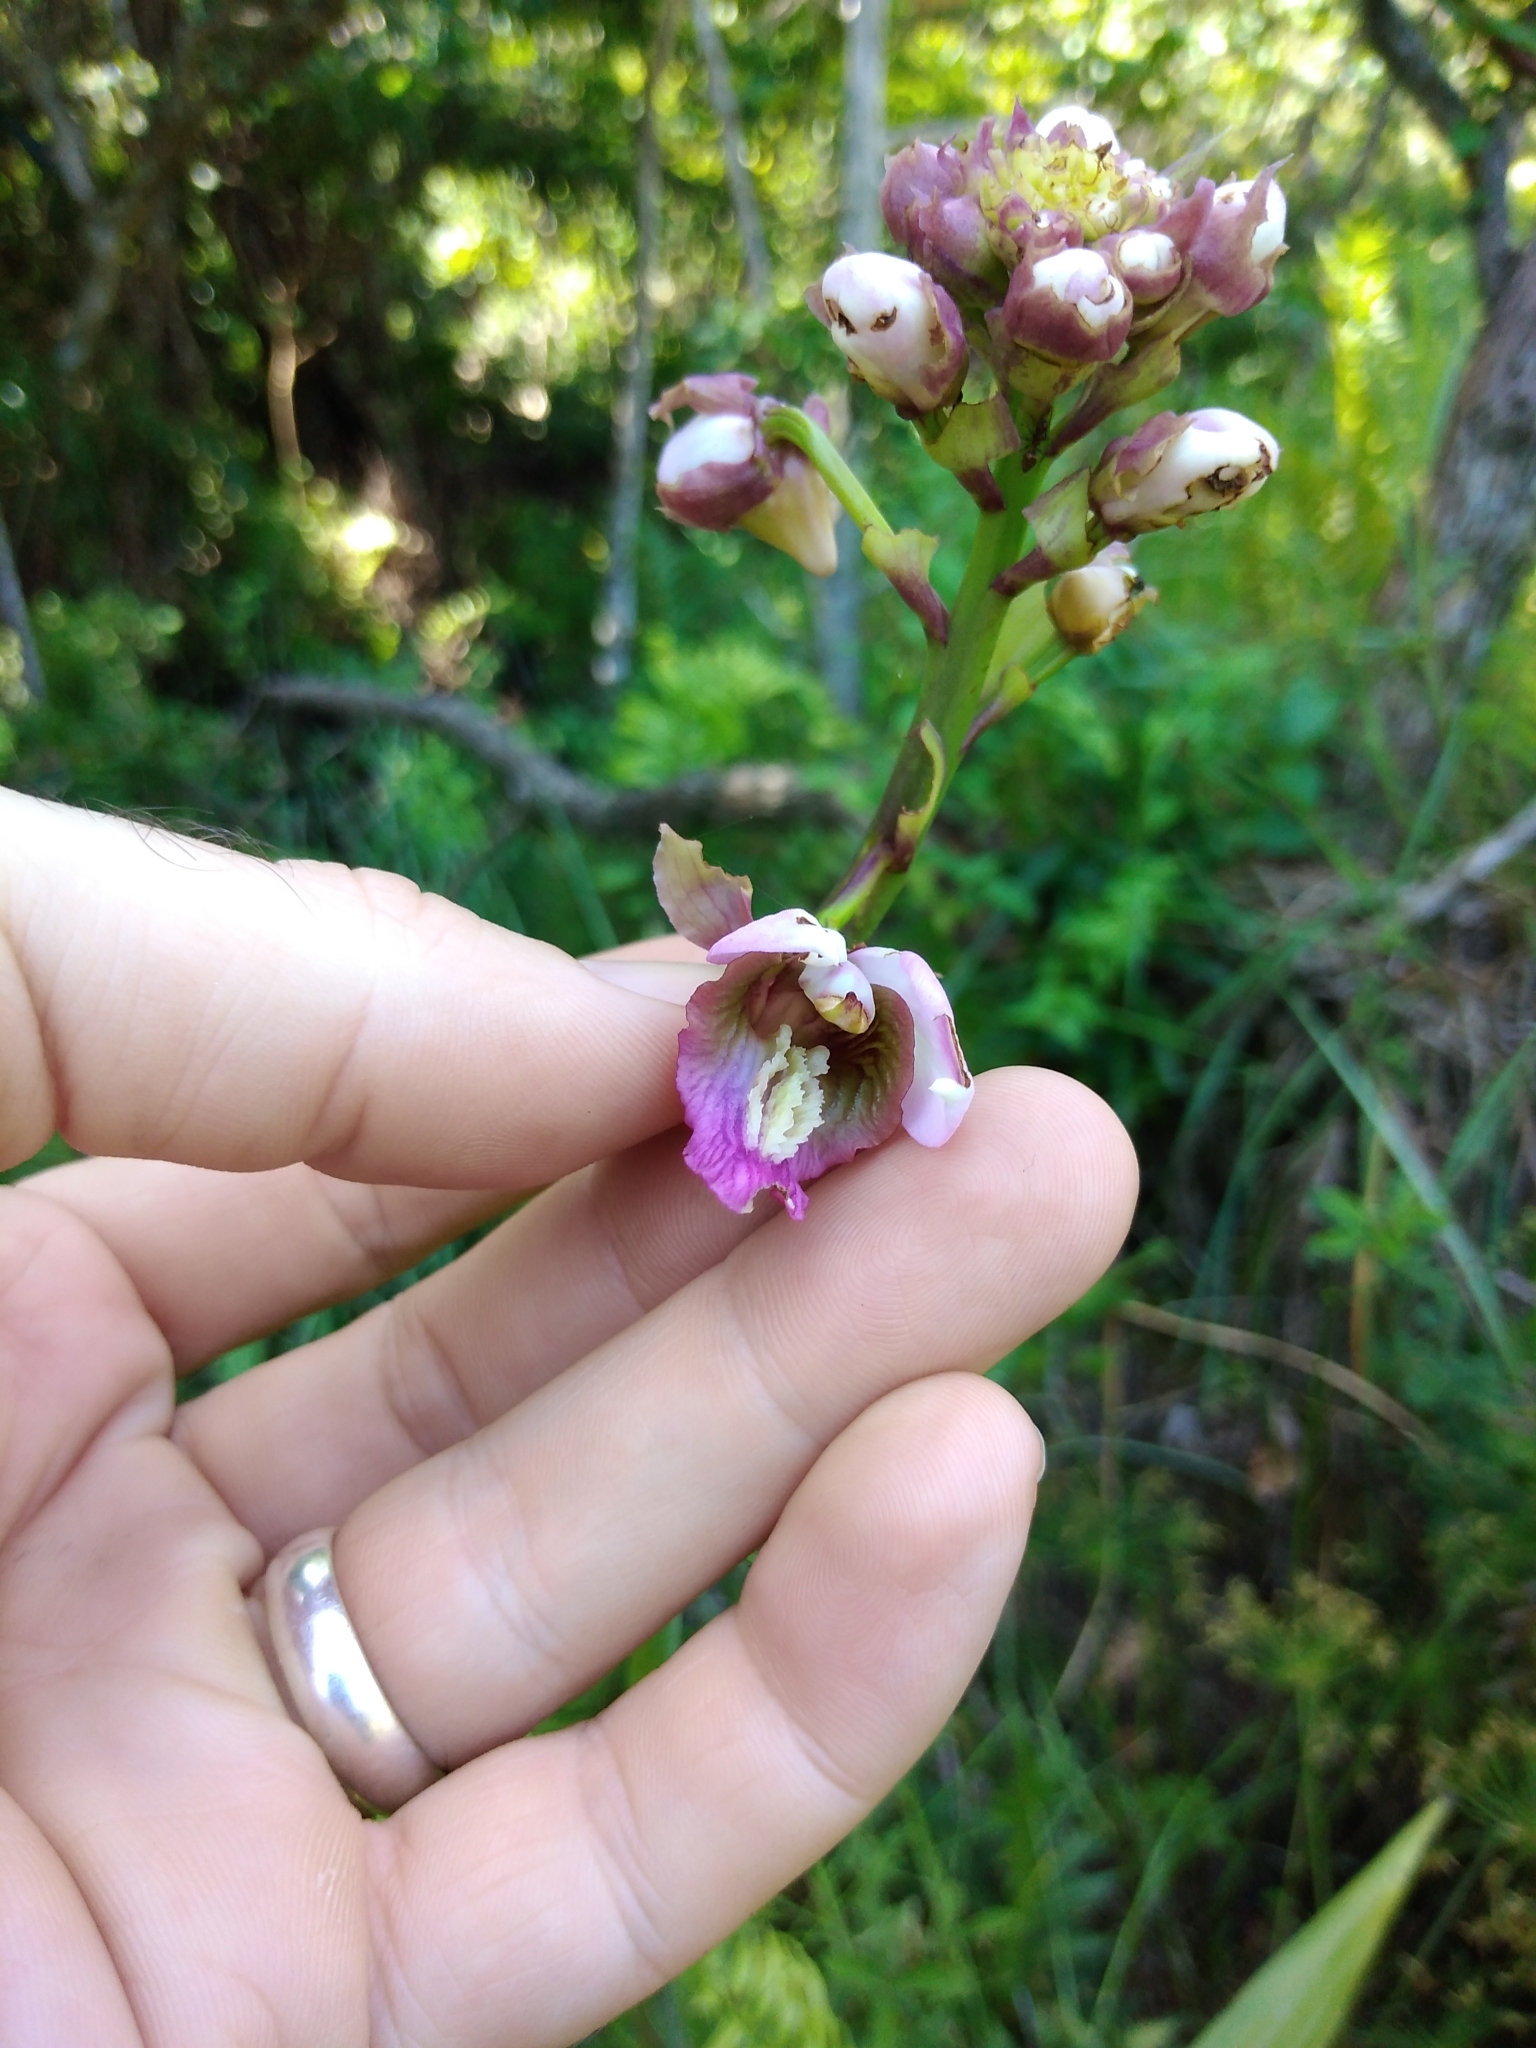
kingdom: Plantae
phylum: Tracheophyta
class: Liliopsida
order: Asparagales
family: Orchidaceae
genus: Eulophia
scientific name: Eulophia horsfallii
